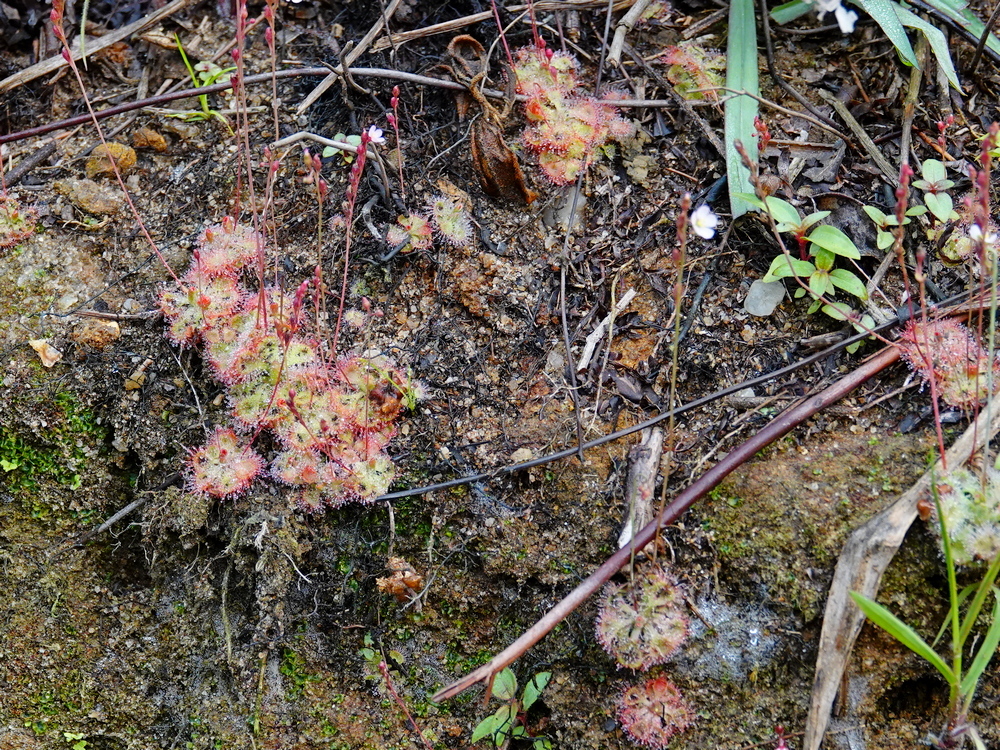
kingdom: Plantae
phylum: Tracheophyta
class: Magnoliopsida
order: Caryophyllales
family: Droseraceae
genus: Drosera
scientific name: Drosera spatulata
